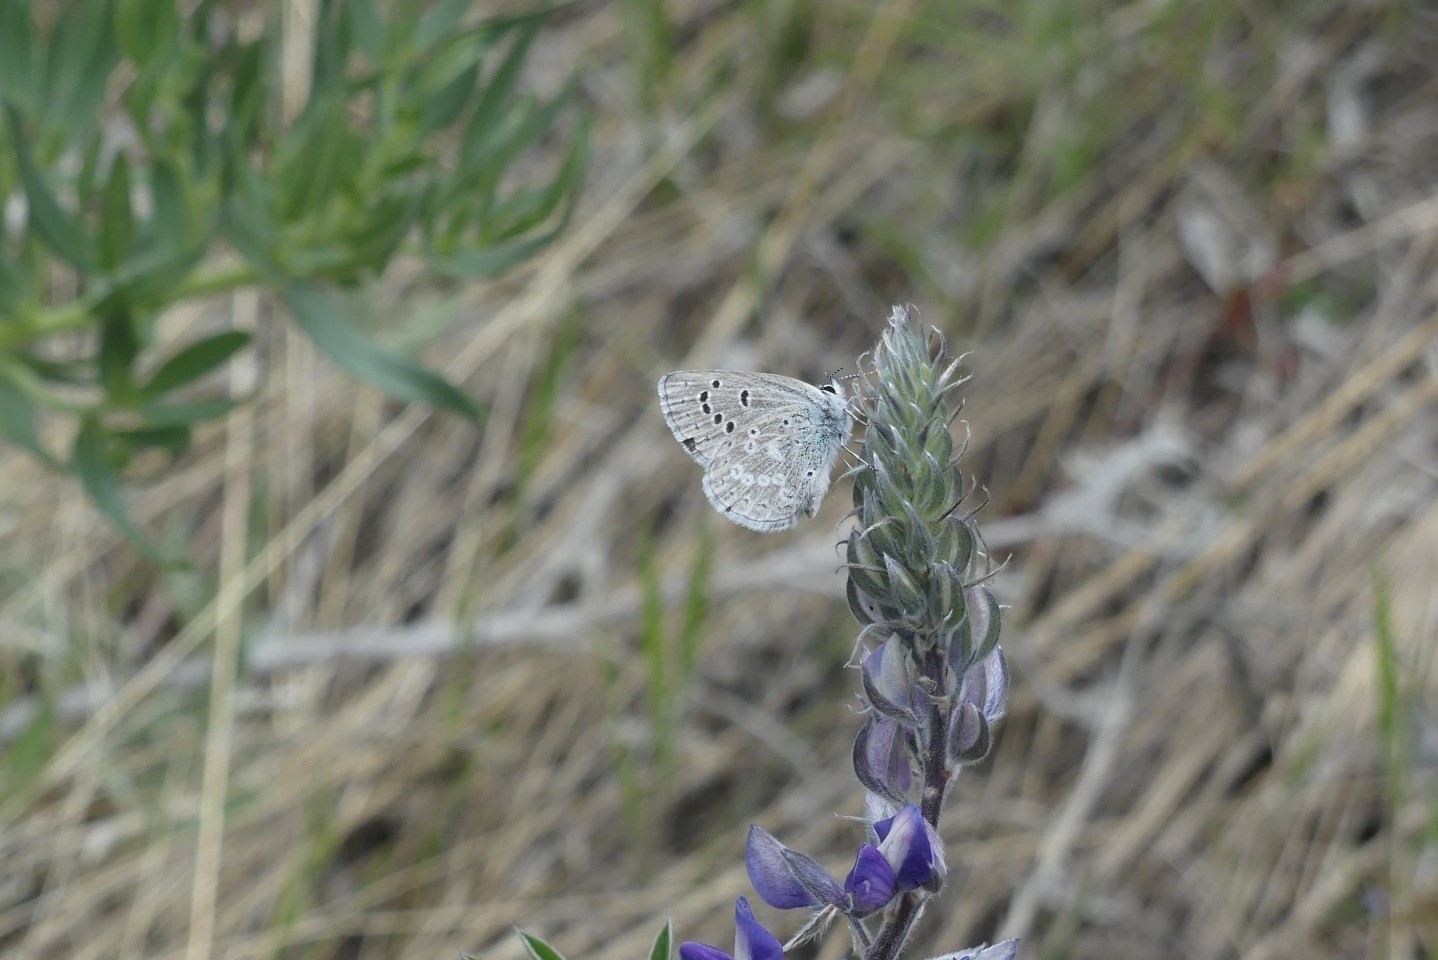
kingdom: Animalia
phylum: Arthropoda
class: Insecta
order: Lepidoptera
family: Lycaenidae
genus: Icaricia
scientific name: Icaricia icarioides
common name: Boisduval's blue
